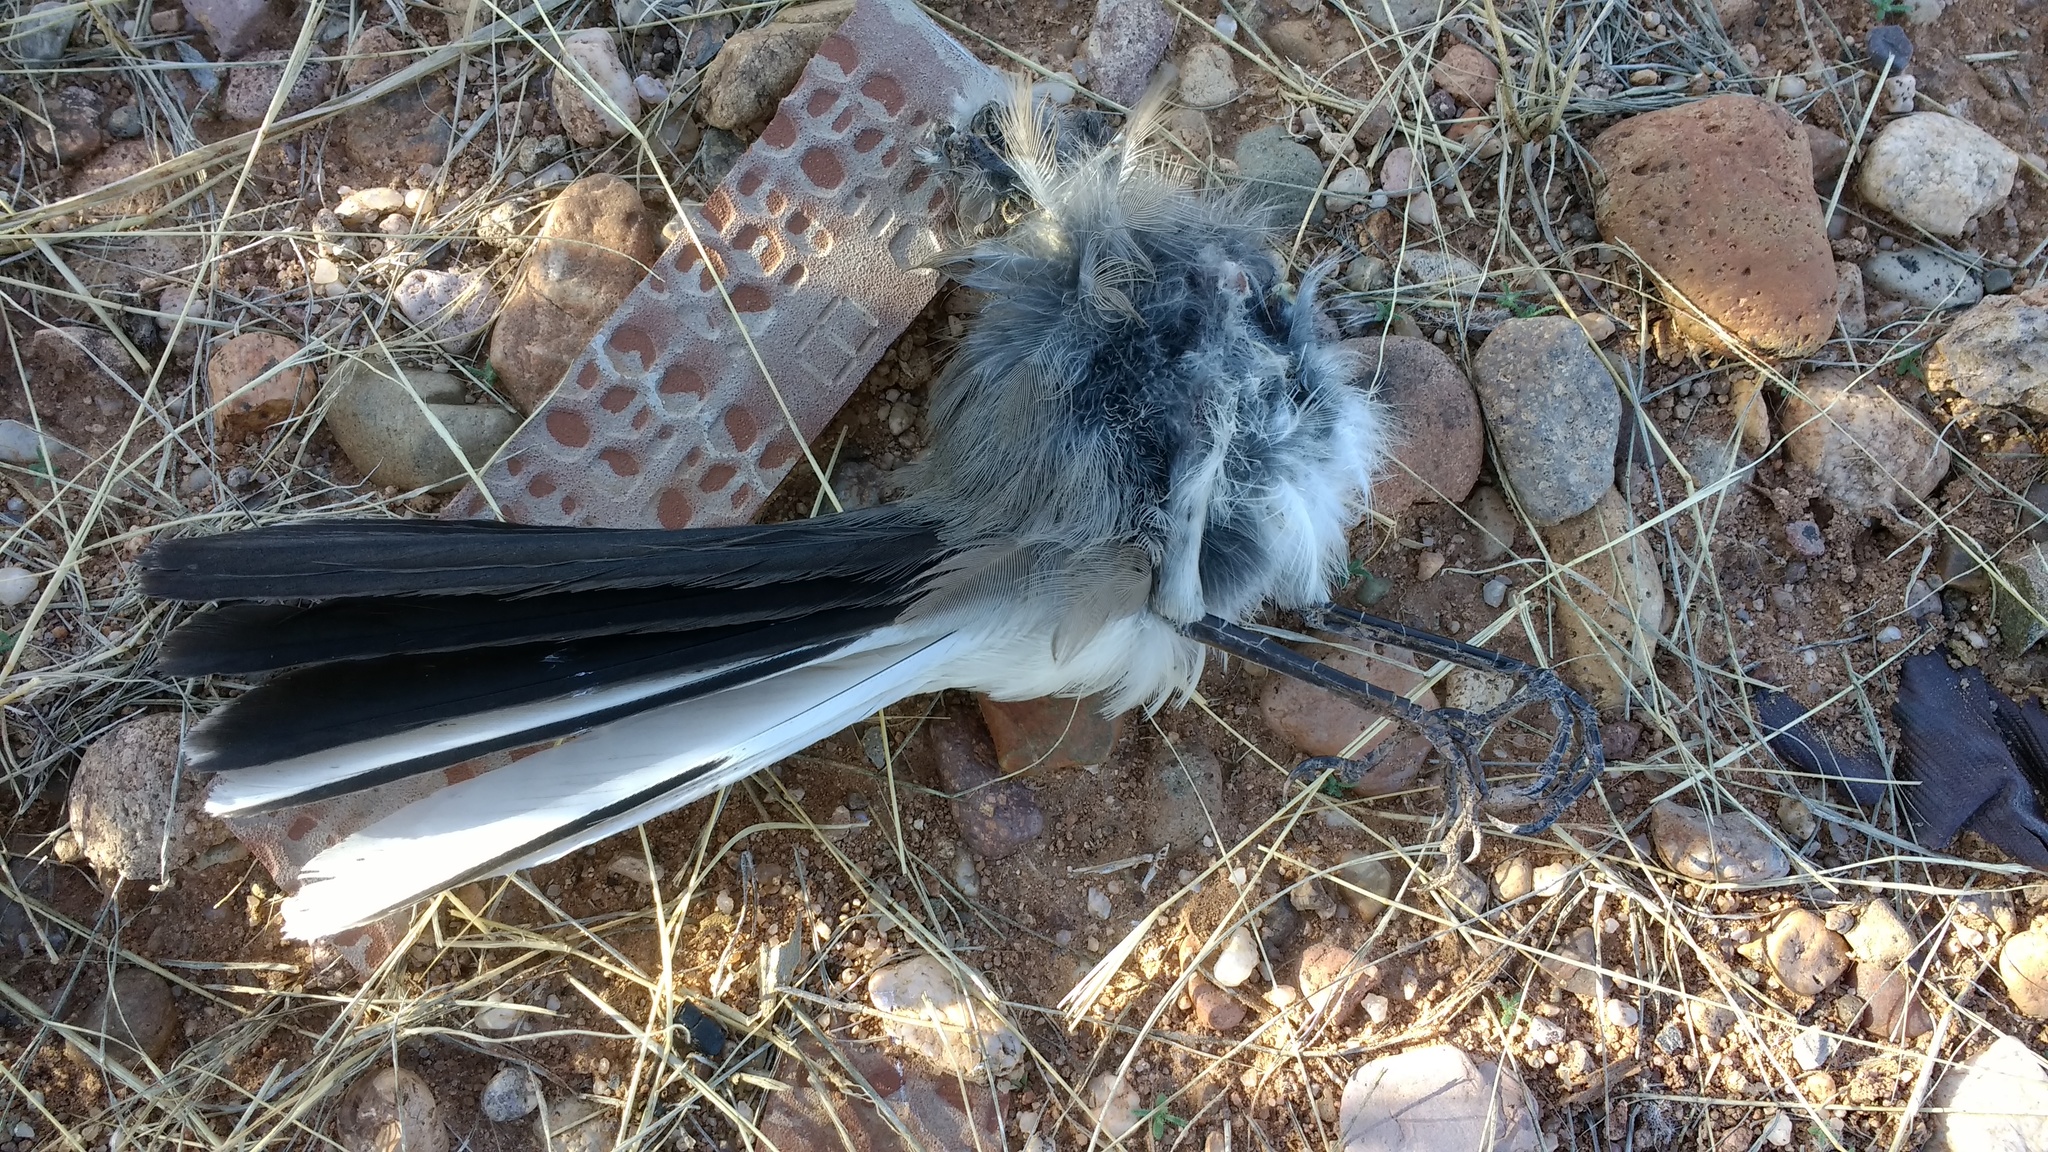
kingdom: Animalia
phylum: Chordata
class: Aves
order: Passeriformes
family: Mimidae
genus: Mimus
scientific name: Mimus polyglottos
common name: Northern mockingbird
